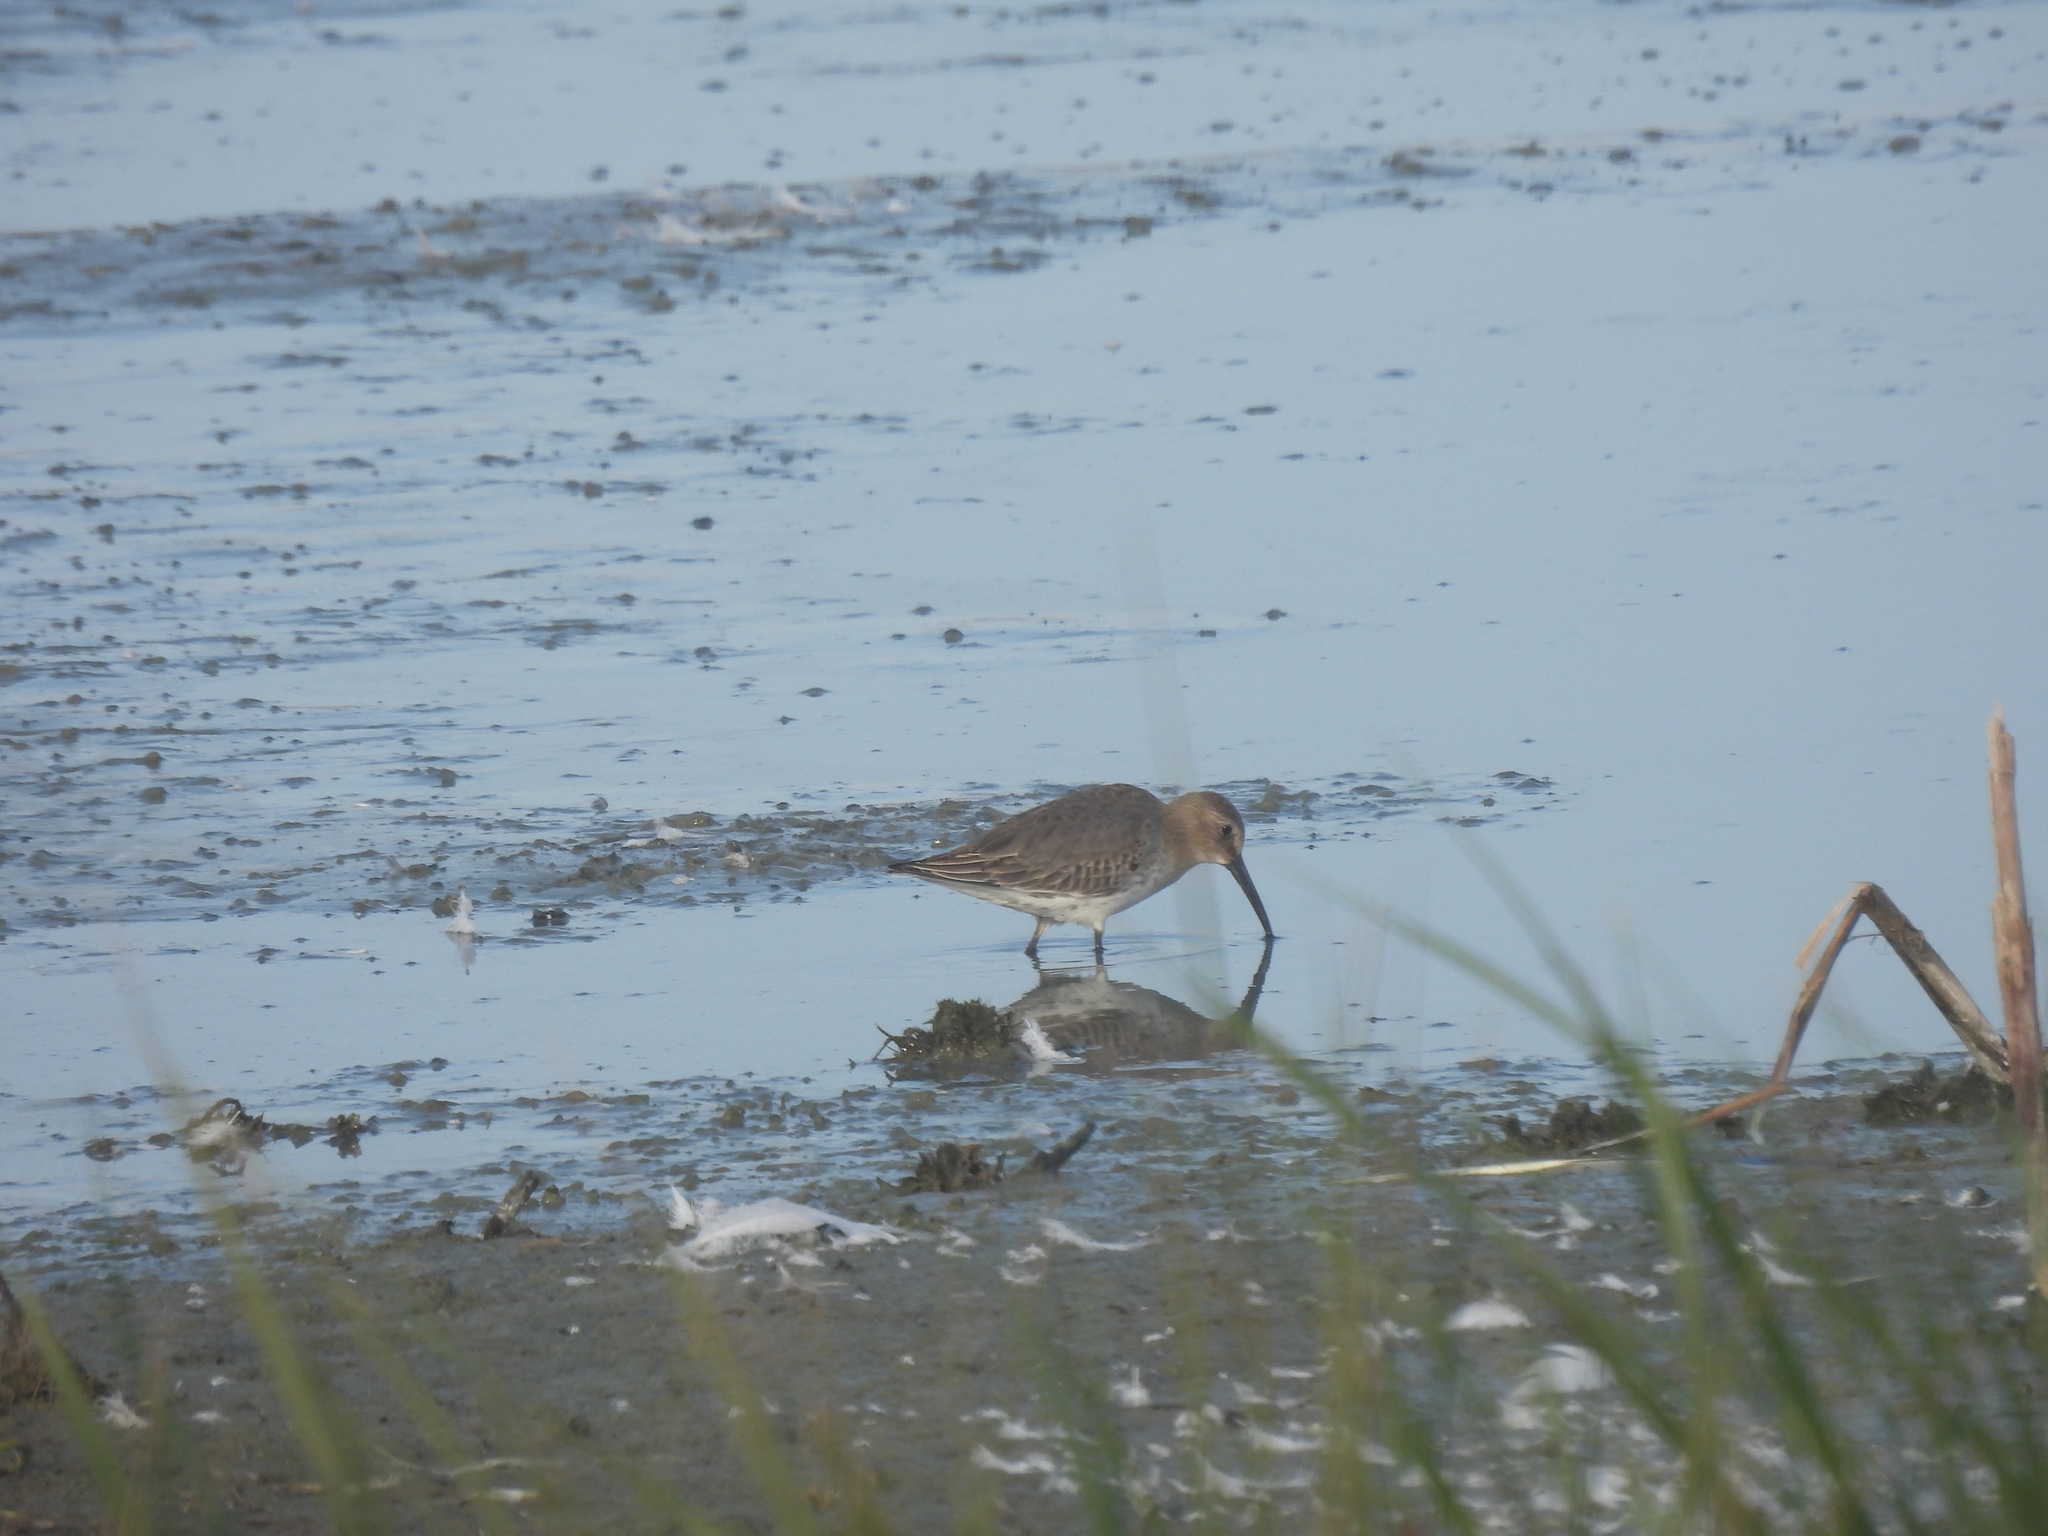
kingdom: Animalia
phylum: Chordata
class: Aves
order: Charadriiformes
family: Scolopacidae
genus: Calidris
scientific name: Calidris alpina
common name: Dunlin
